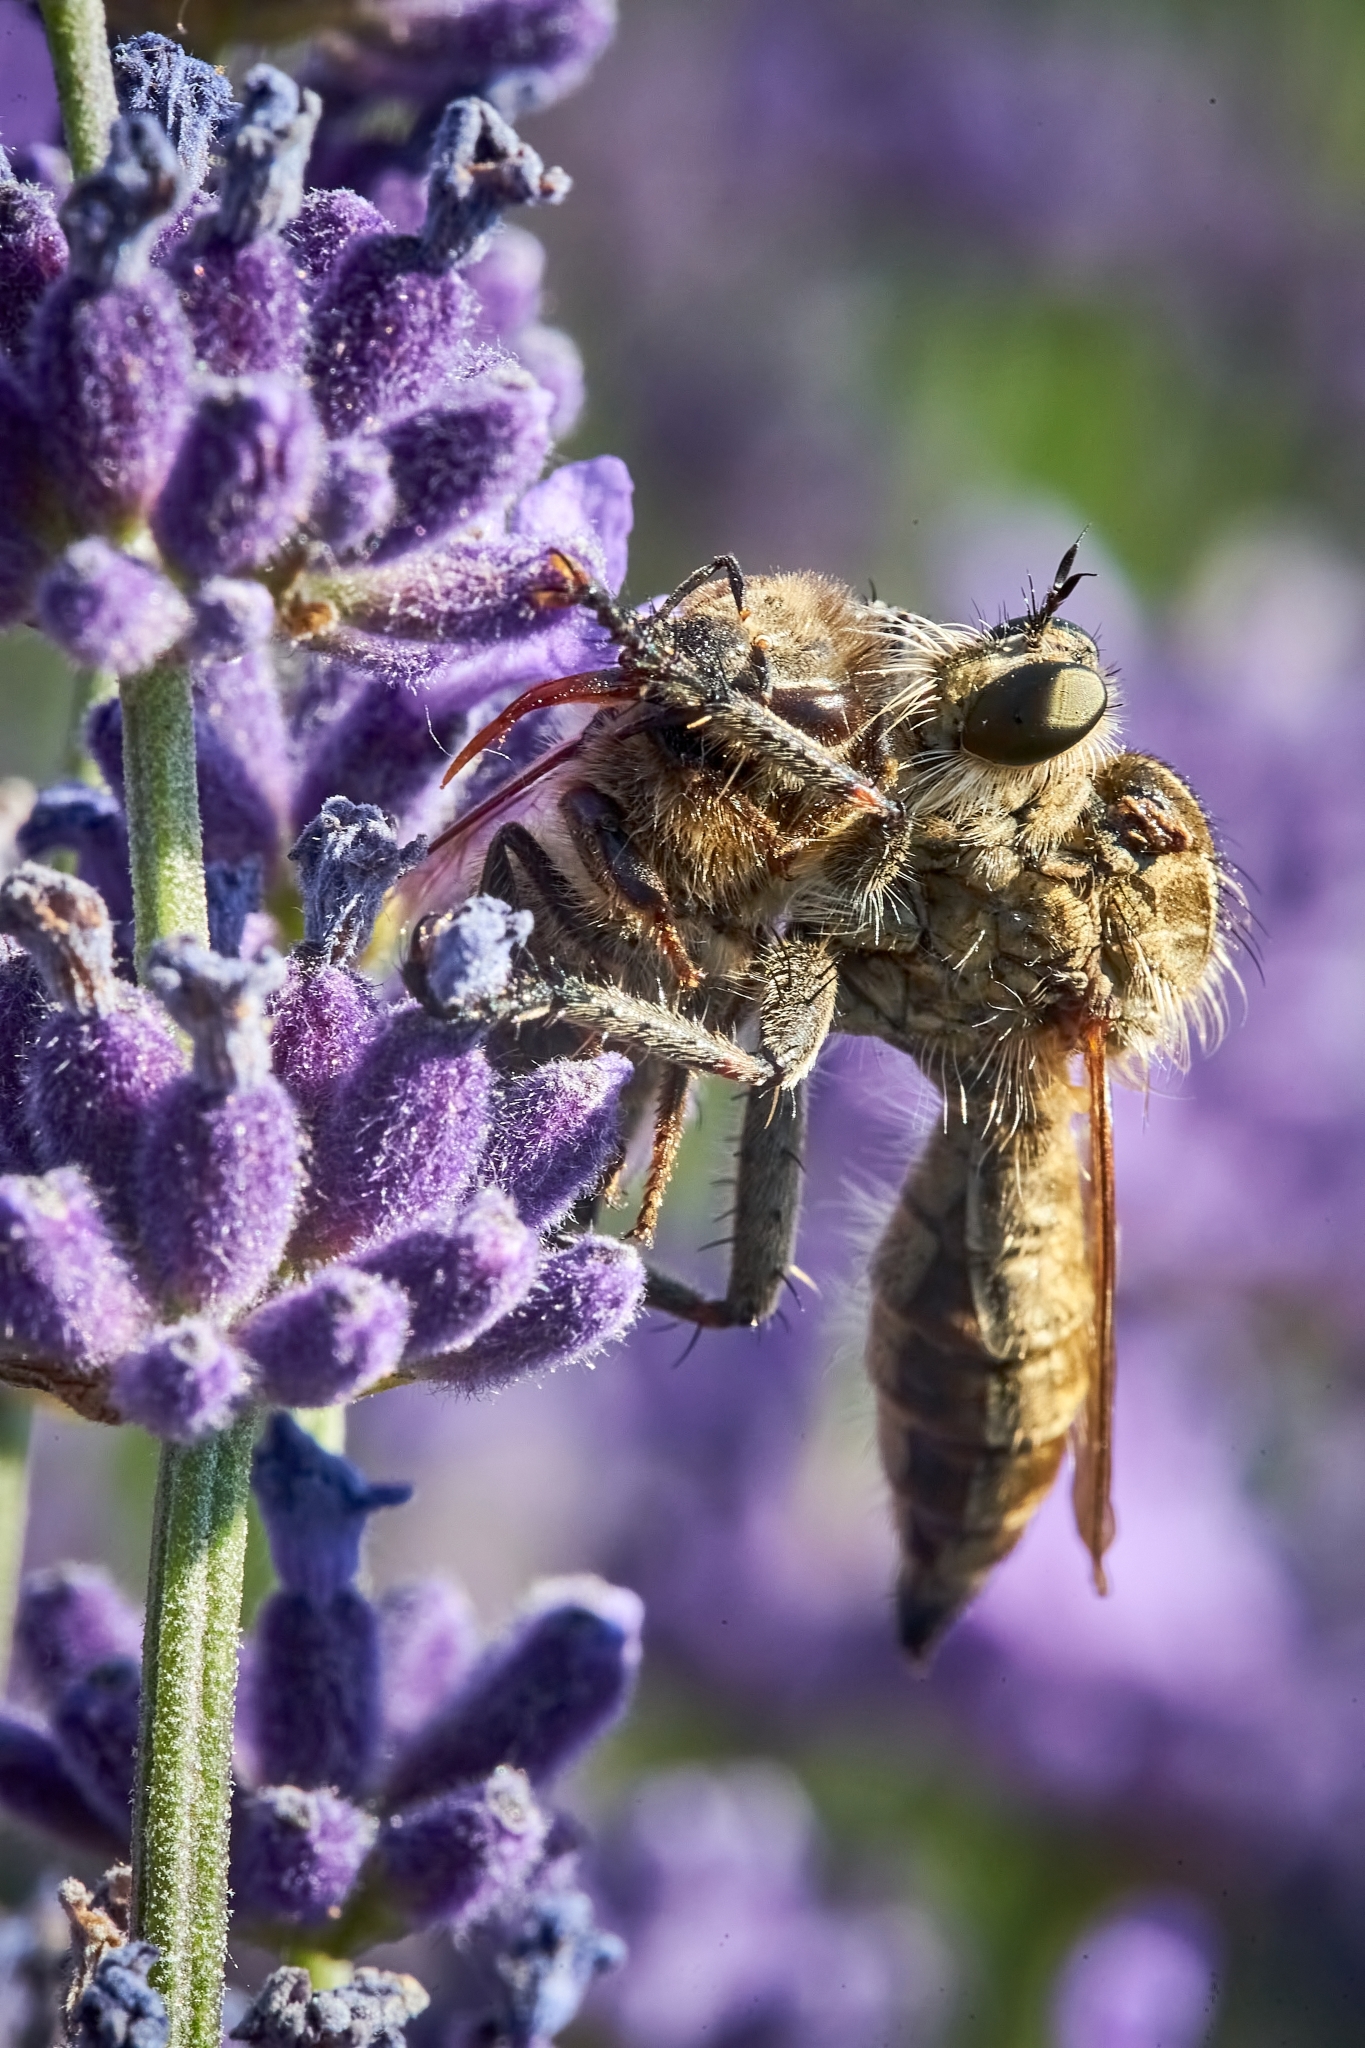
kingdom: Animalia
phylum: Arthropoda
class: Insecta
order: Diptera
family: Asilidae
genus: Machimus
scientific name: Machimus rusticus
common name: Downland robberfly
